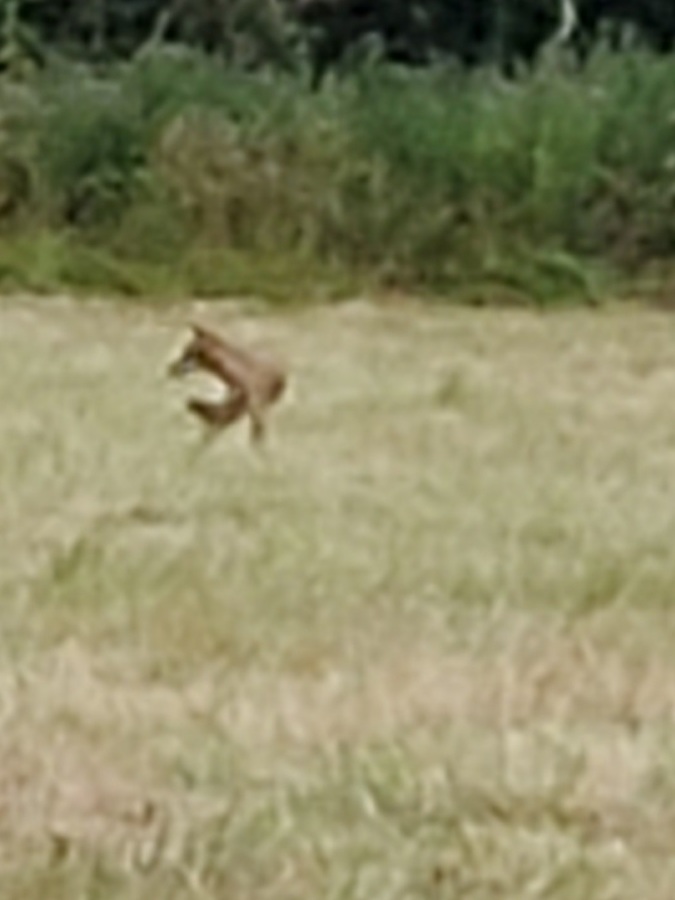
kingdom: Animalia
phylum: Chordata
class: Mammalia
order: Carnivora
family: Canidae
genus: Canis
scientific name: Canis latrans
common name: Coyote
